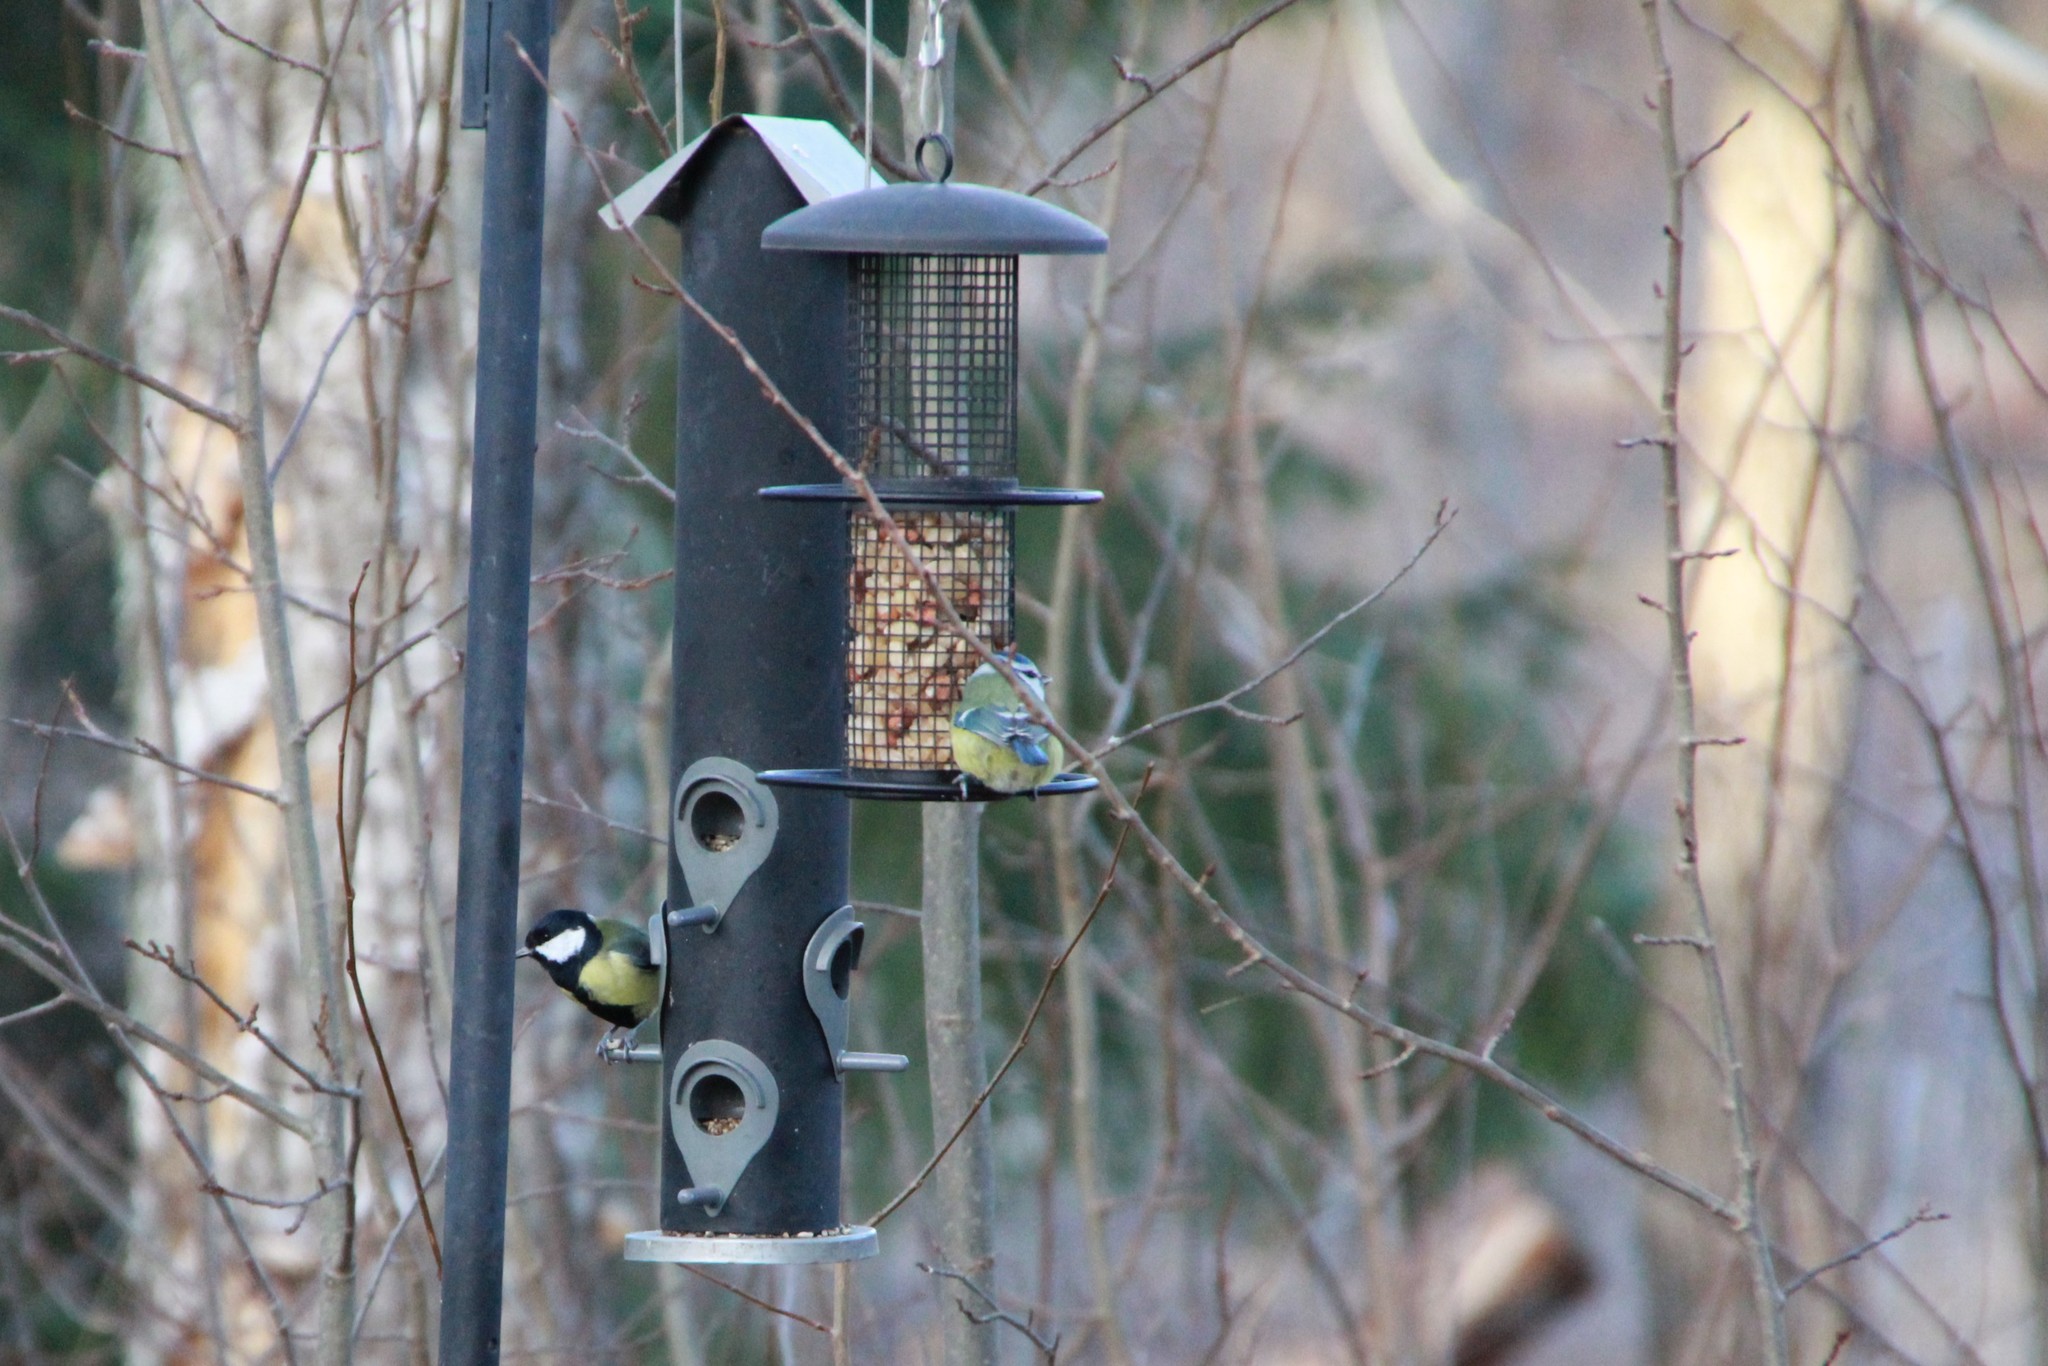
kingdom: Animalia
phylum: Chordata
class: Aves
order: Passeriformes
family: Paridae
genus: Cyanistes
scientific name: Cyanistes caeruleus
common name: Eurasian blue tit
